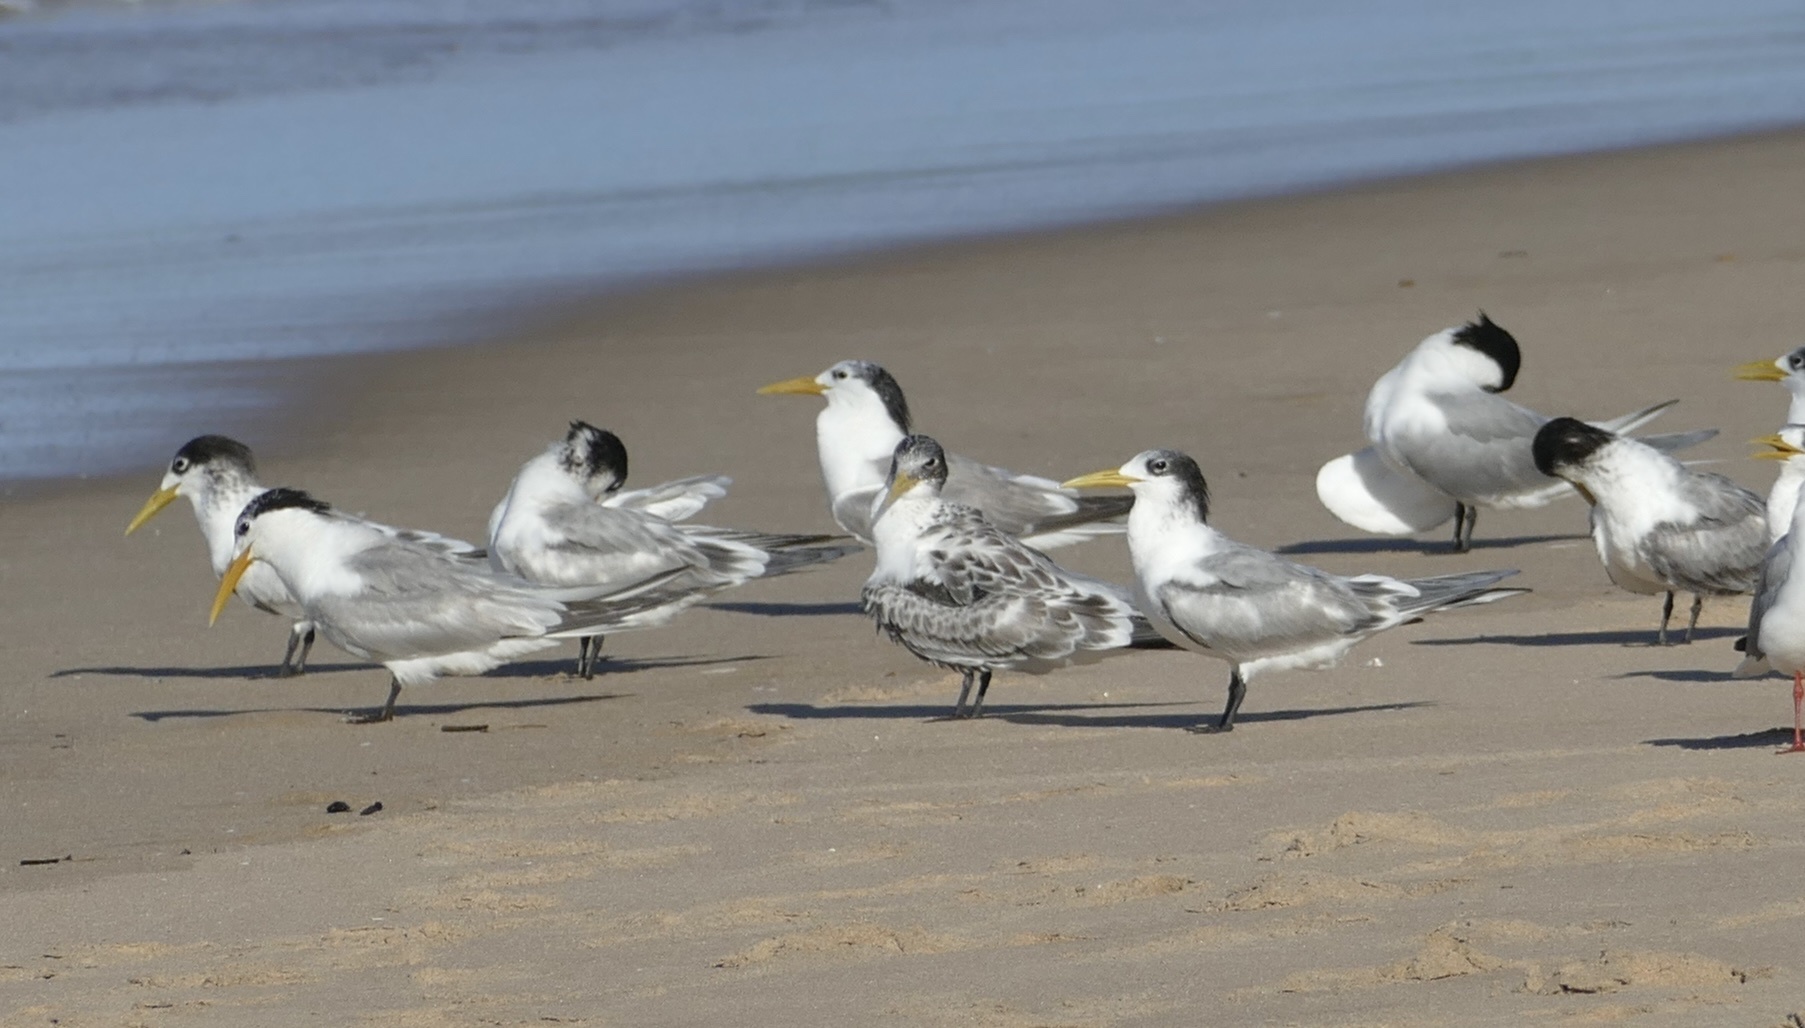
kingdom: Animalia
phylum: Chordata
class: Aves
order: Charadriiformes
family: Laridae
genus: Thalasseus
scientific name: Thalasseus bergii
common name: Greater crested tern
